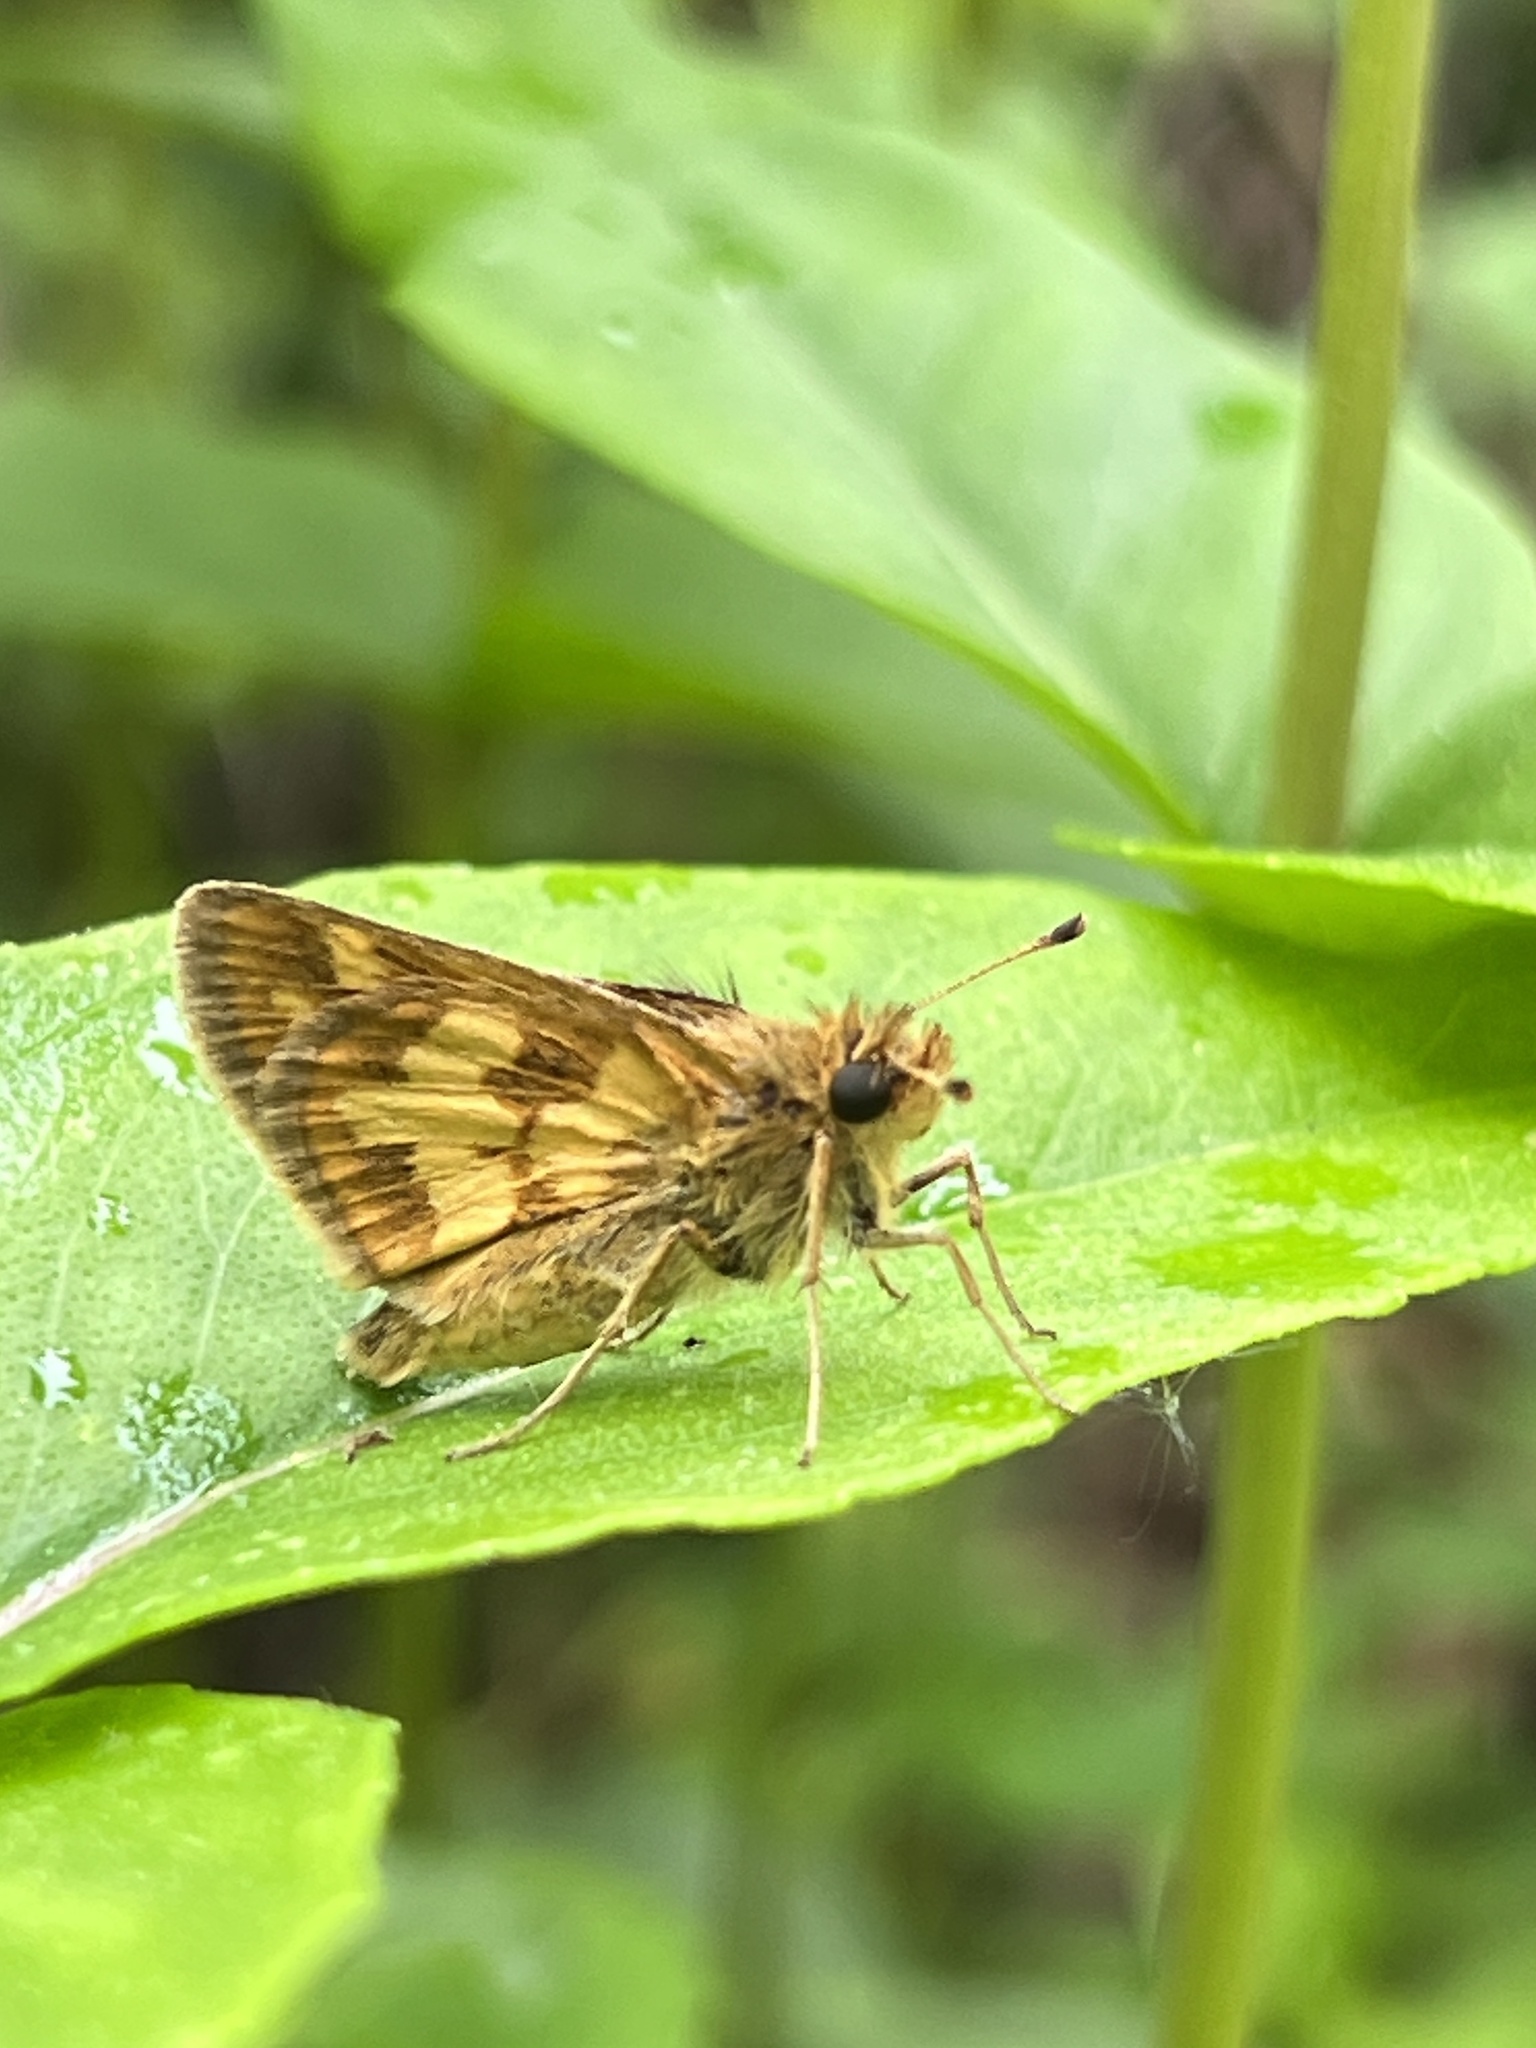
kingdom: Animalia
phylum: Arthropoda
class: Insecta
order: Lepidoptera
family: Hesperiidae
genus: Polites
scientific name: Polites coras
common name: Peck's skipper
